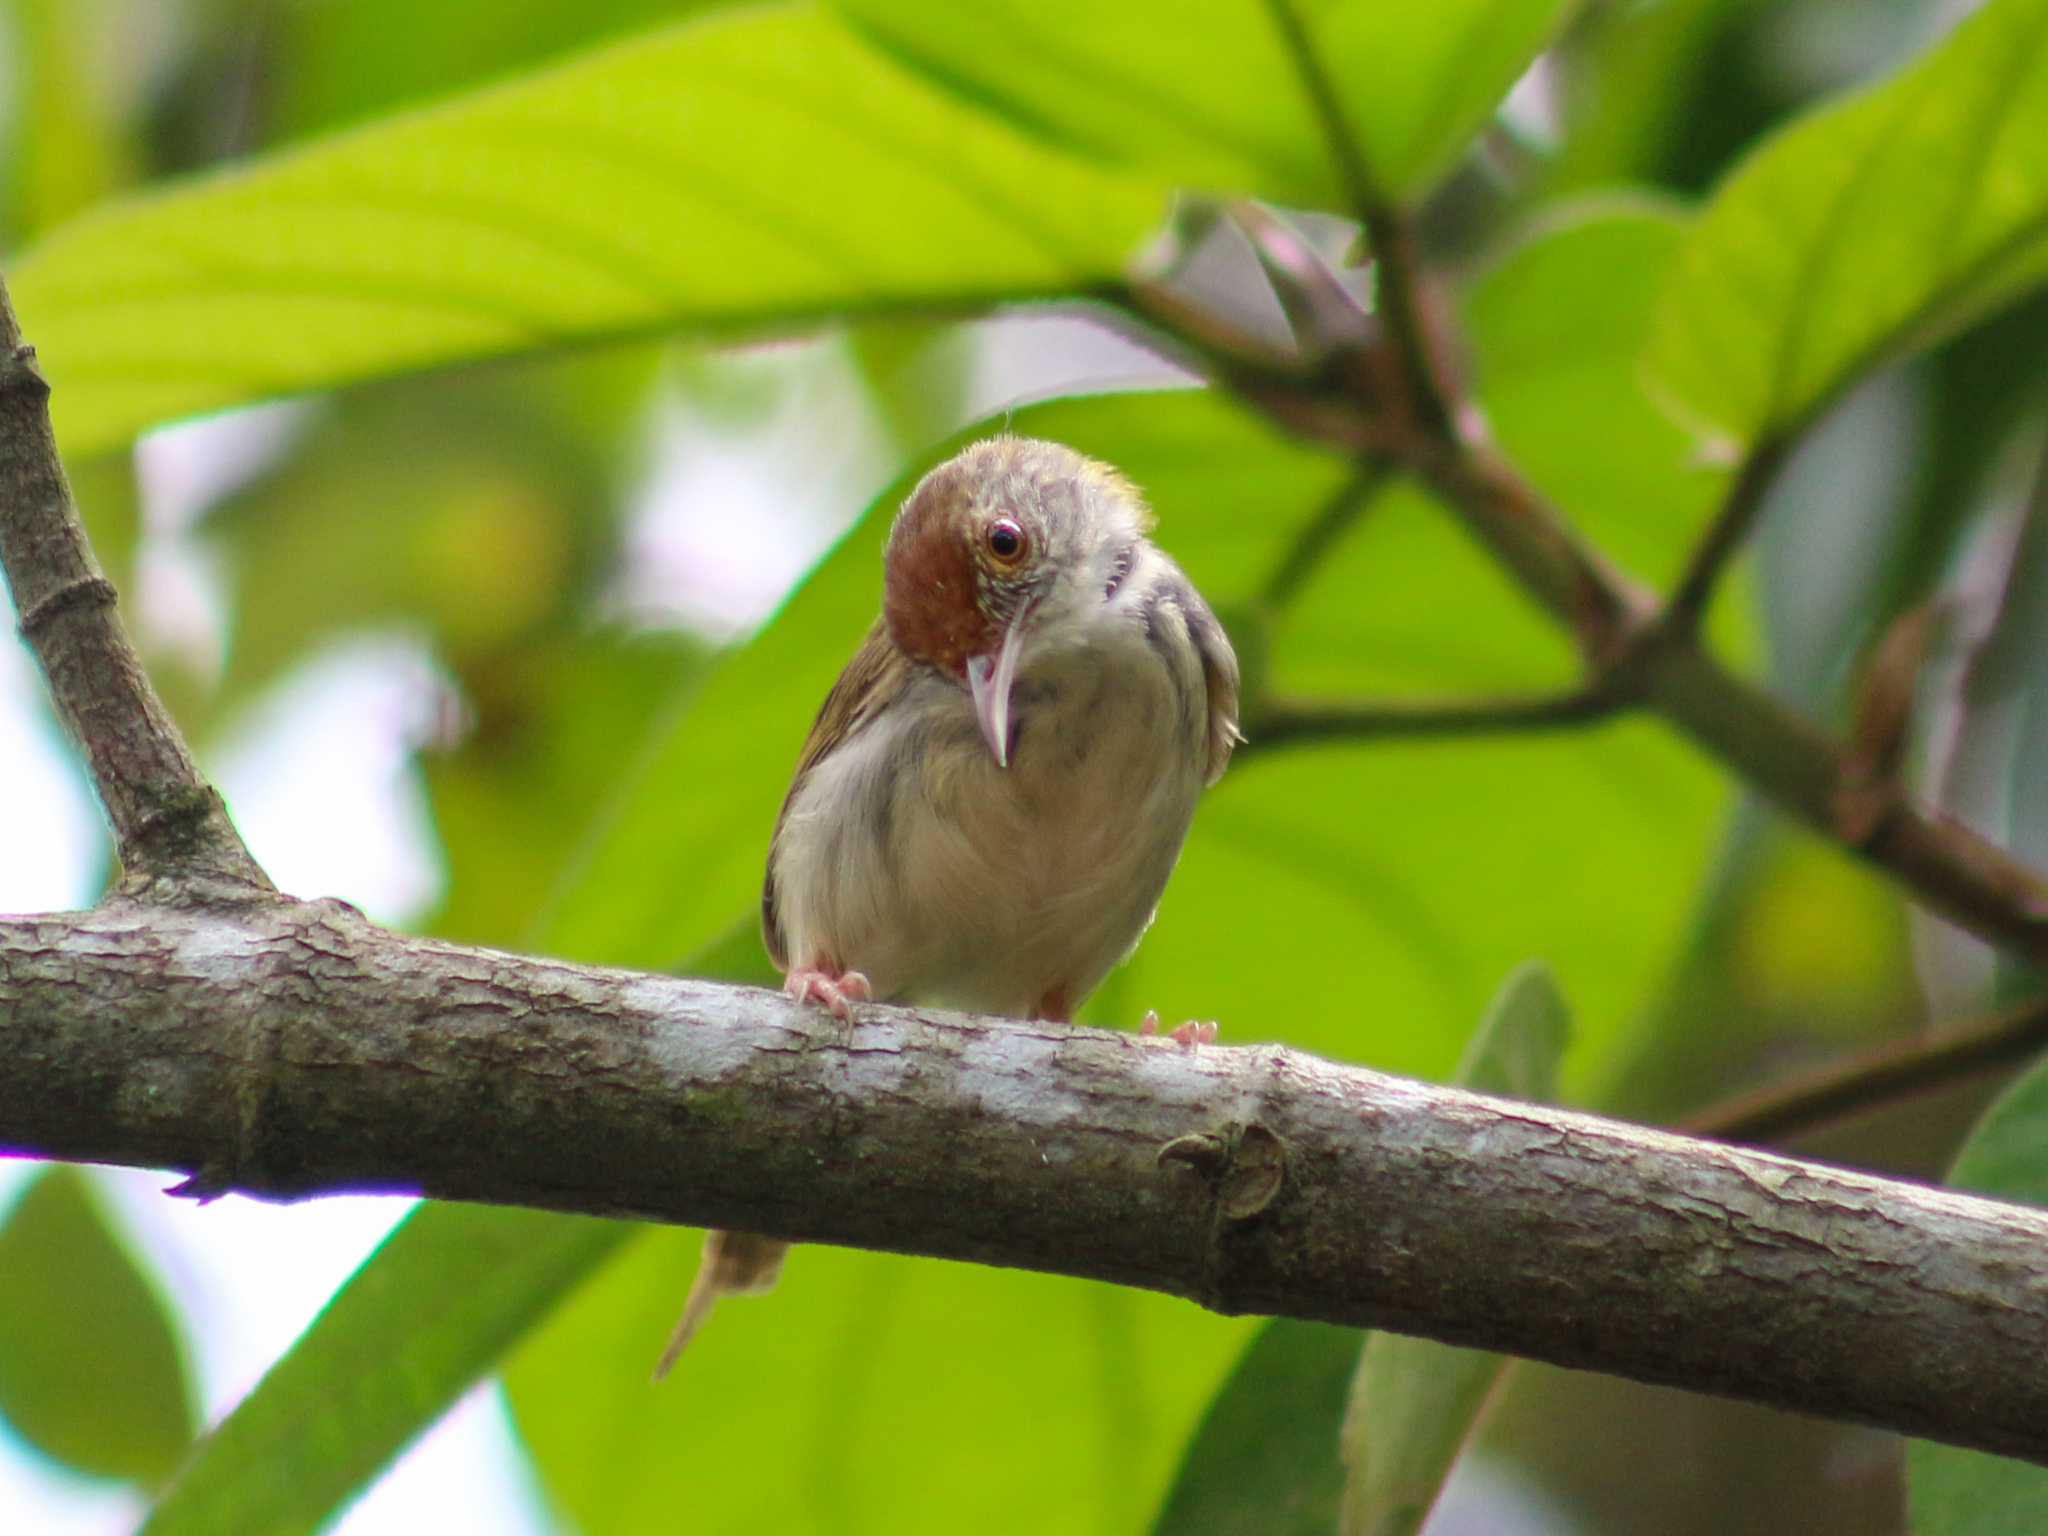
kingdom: Animalia
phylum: Chordata
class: Aves
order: Passeriformes
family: Cisticolidae
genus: Orthotomus
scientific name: Orthotomus sutorius
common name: Common tailorbird
